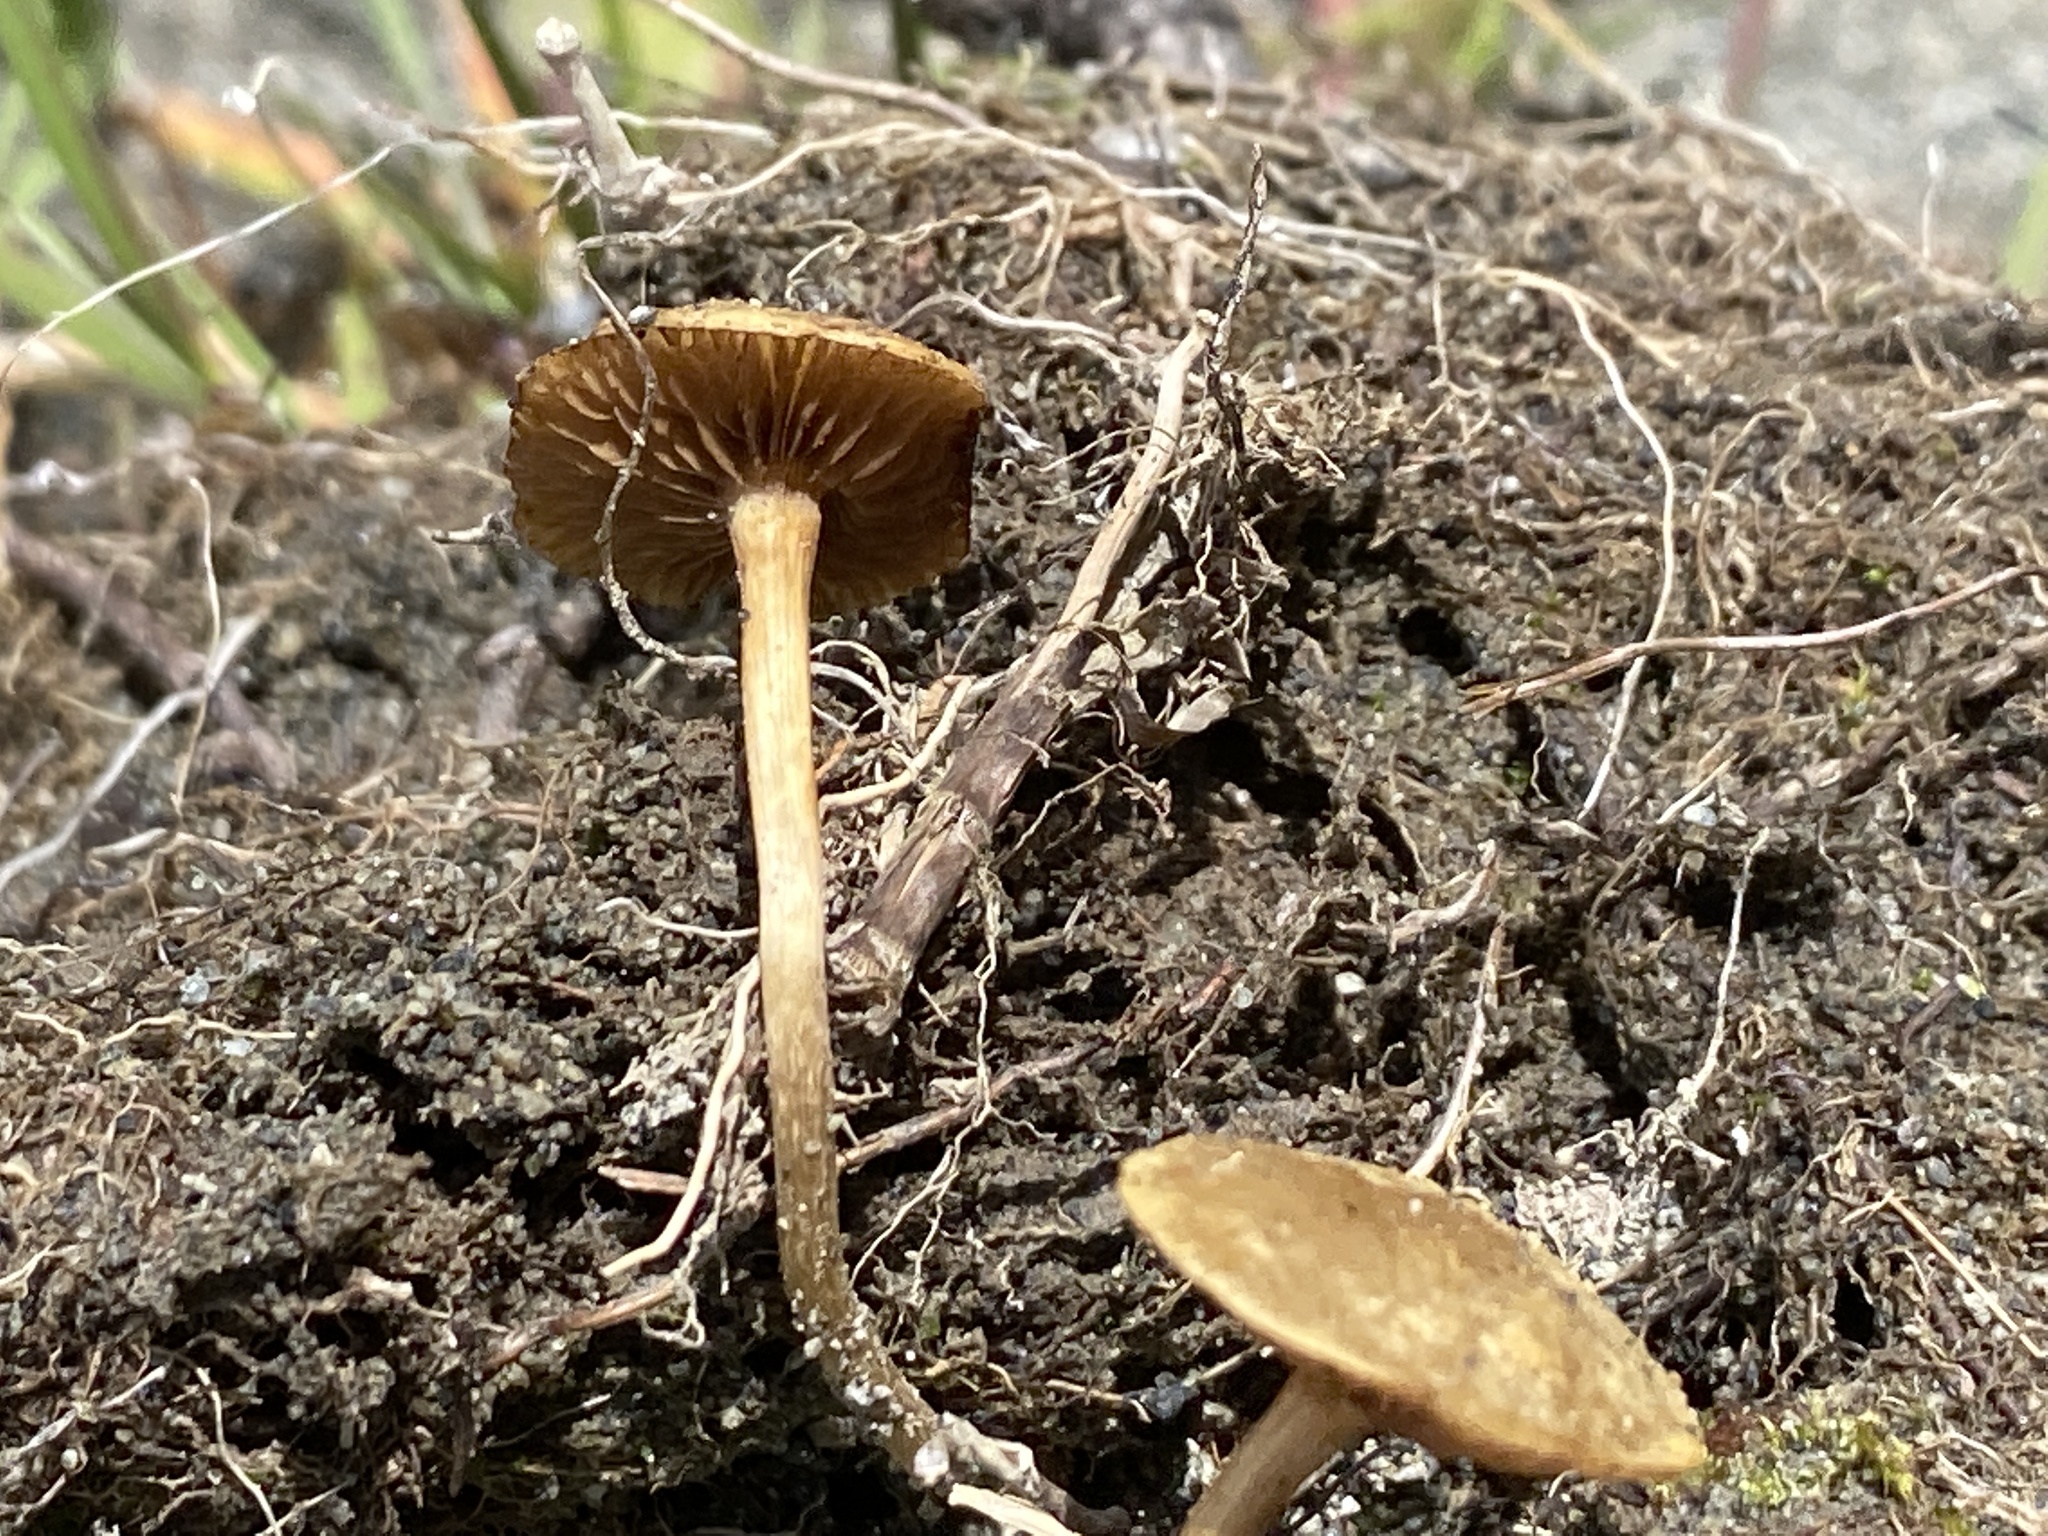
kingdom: Fungi
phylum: Basidiomycota
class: Agaricomycetes
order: Agaricales
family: Strophariaceae
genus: Agrocybe
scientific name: Agrocybe pediades
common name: Common fieldcap
